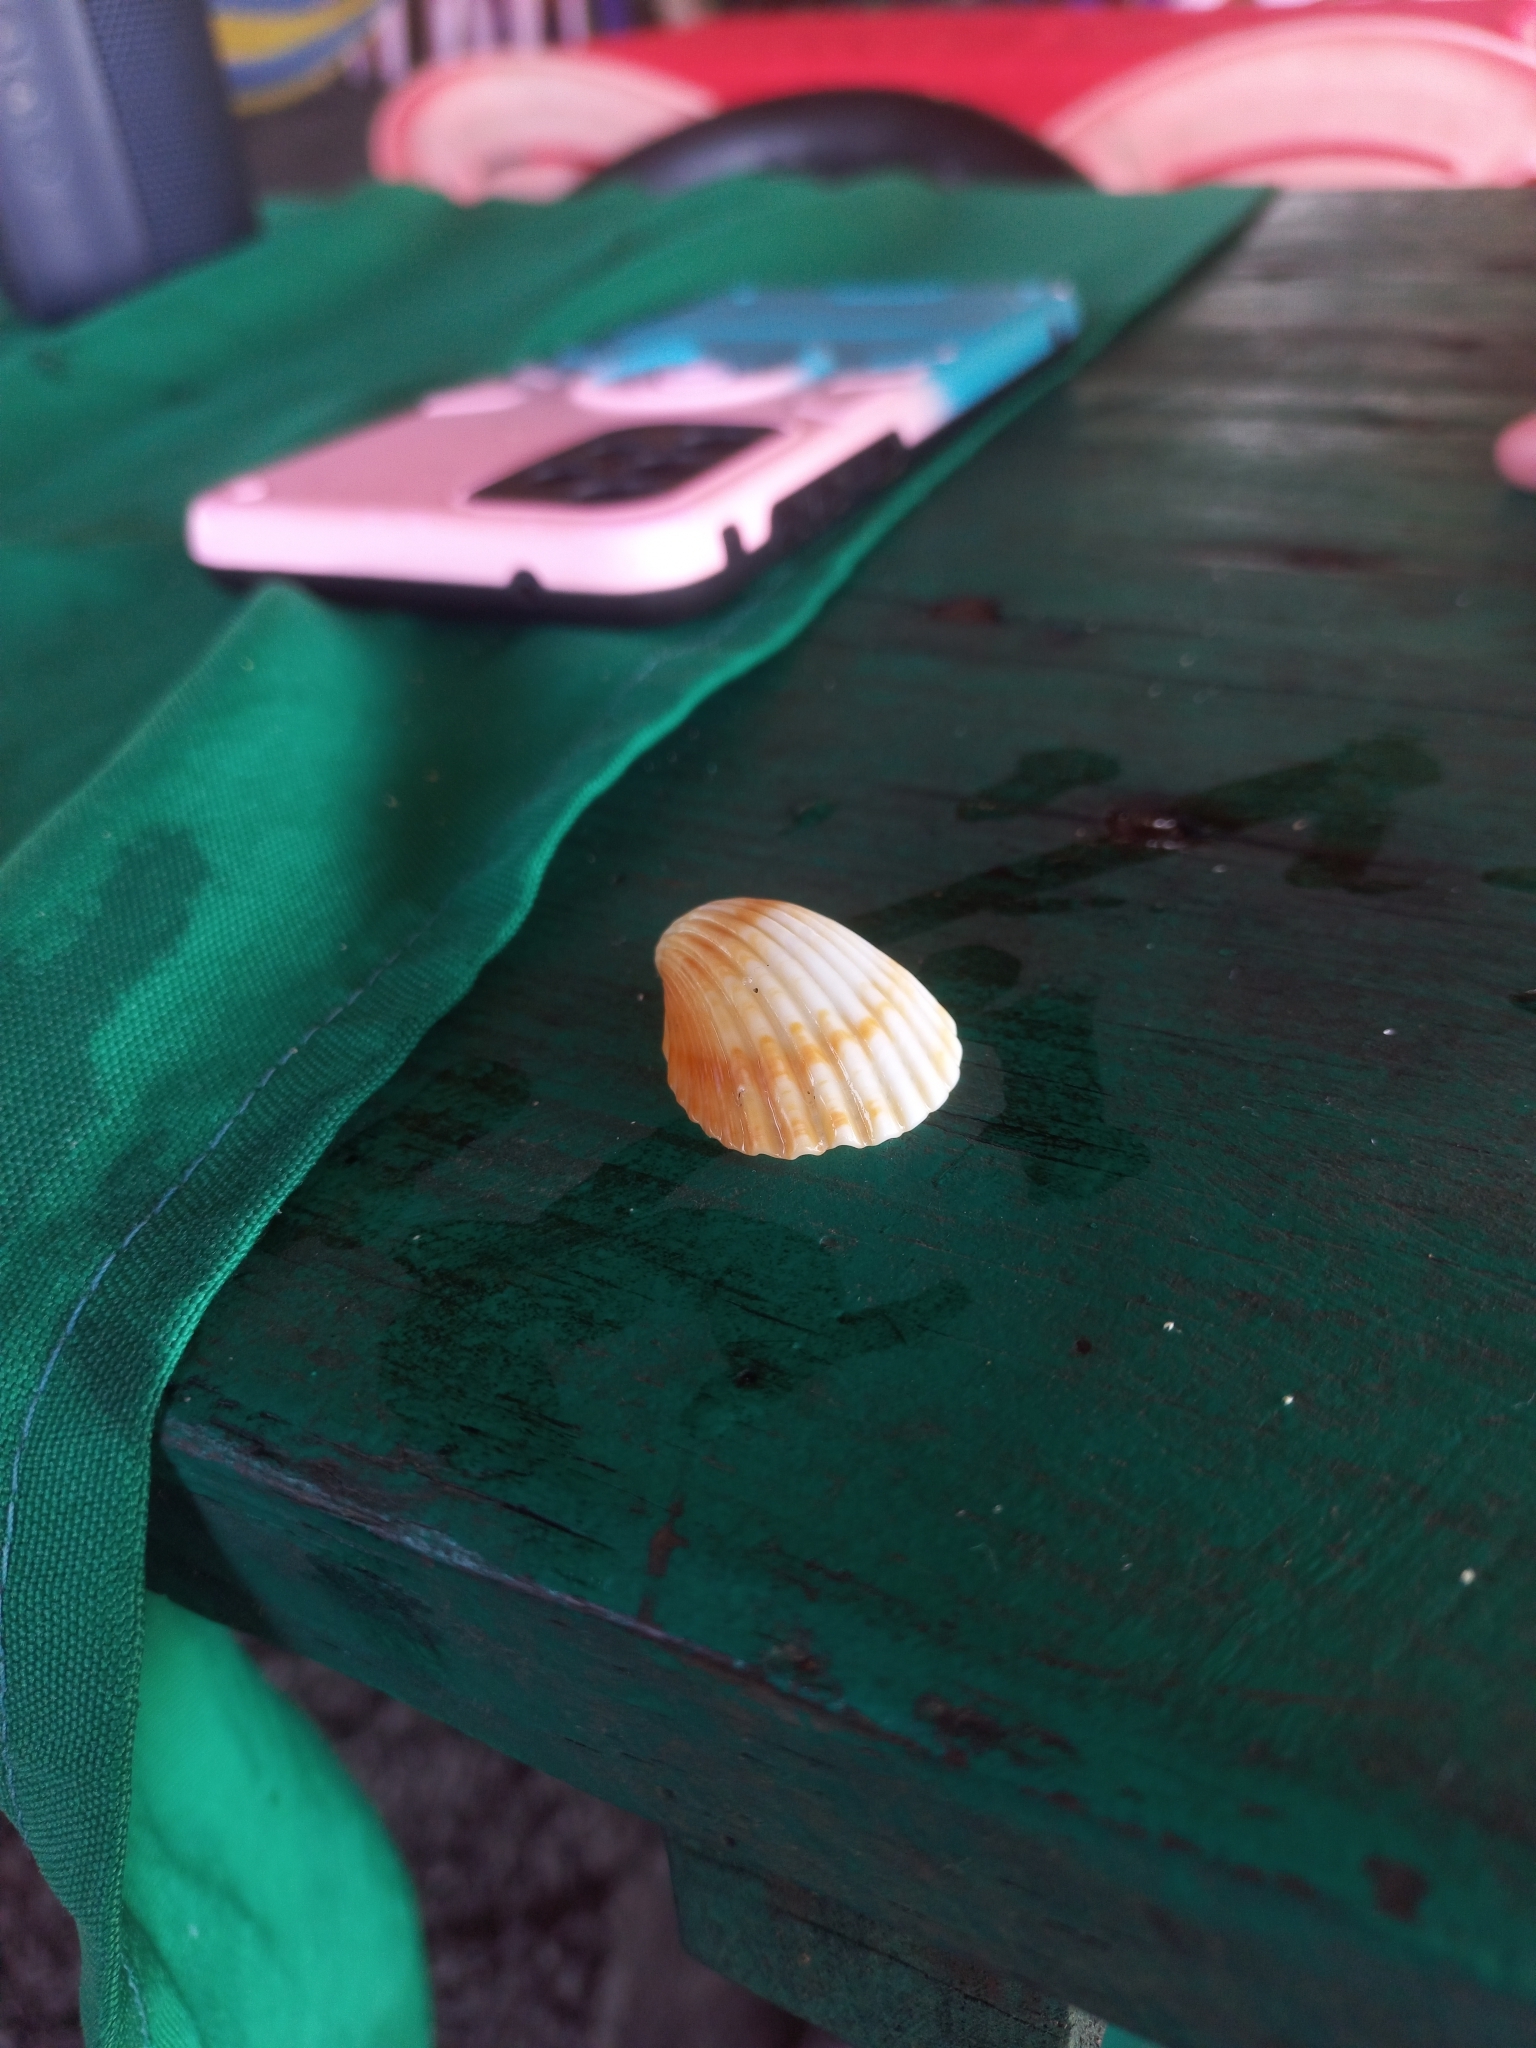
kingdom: Animalia
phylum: Mollusca
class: Bivalvia
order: Cardiida
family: Cardiidae
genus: Trachycardium
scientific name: Trachycardium procerum
